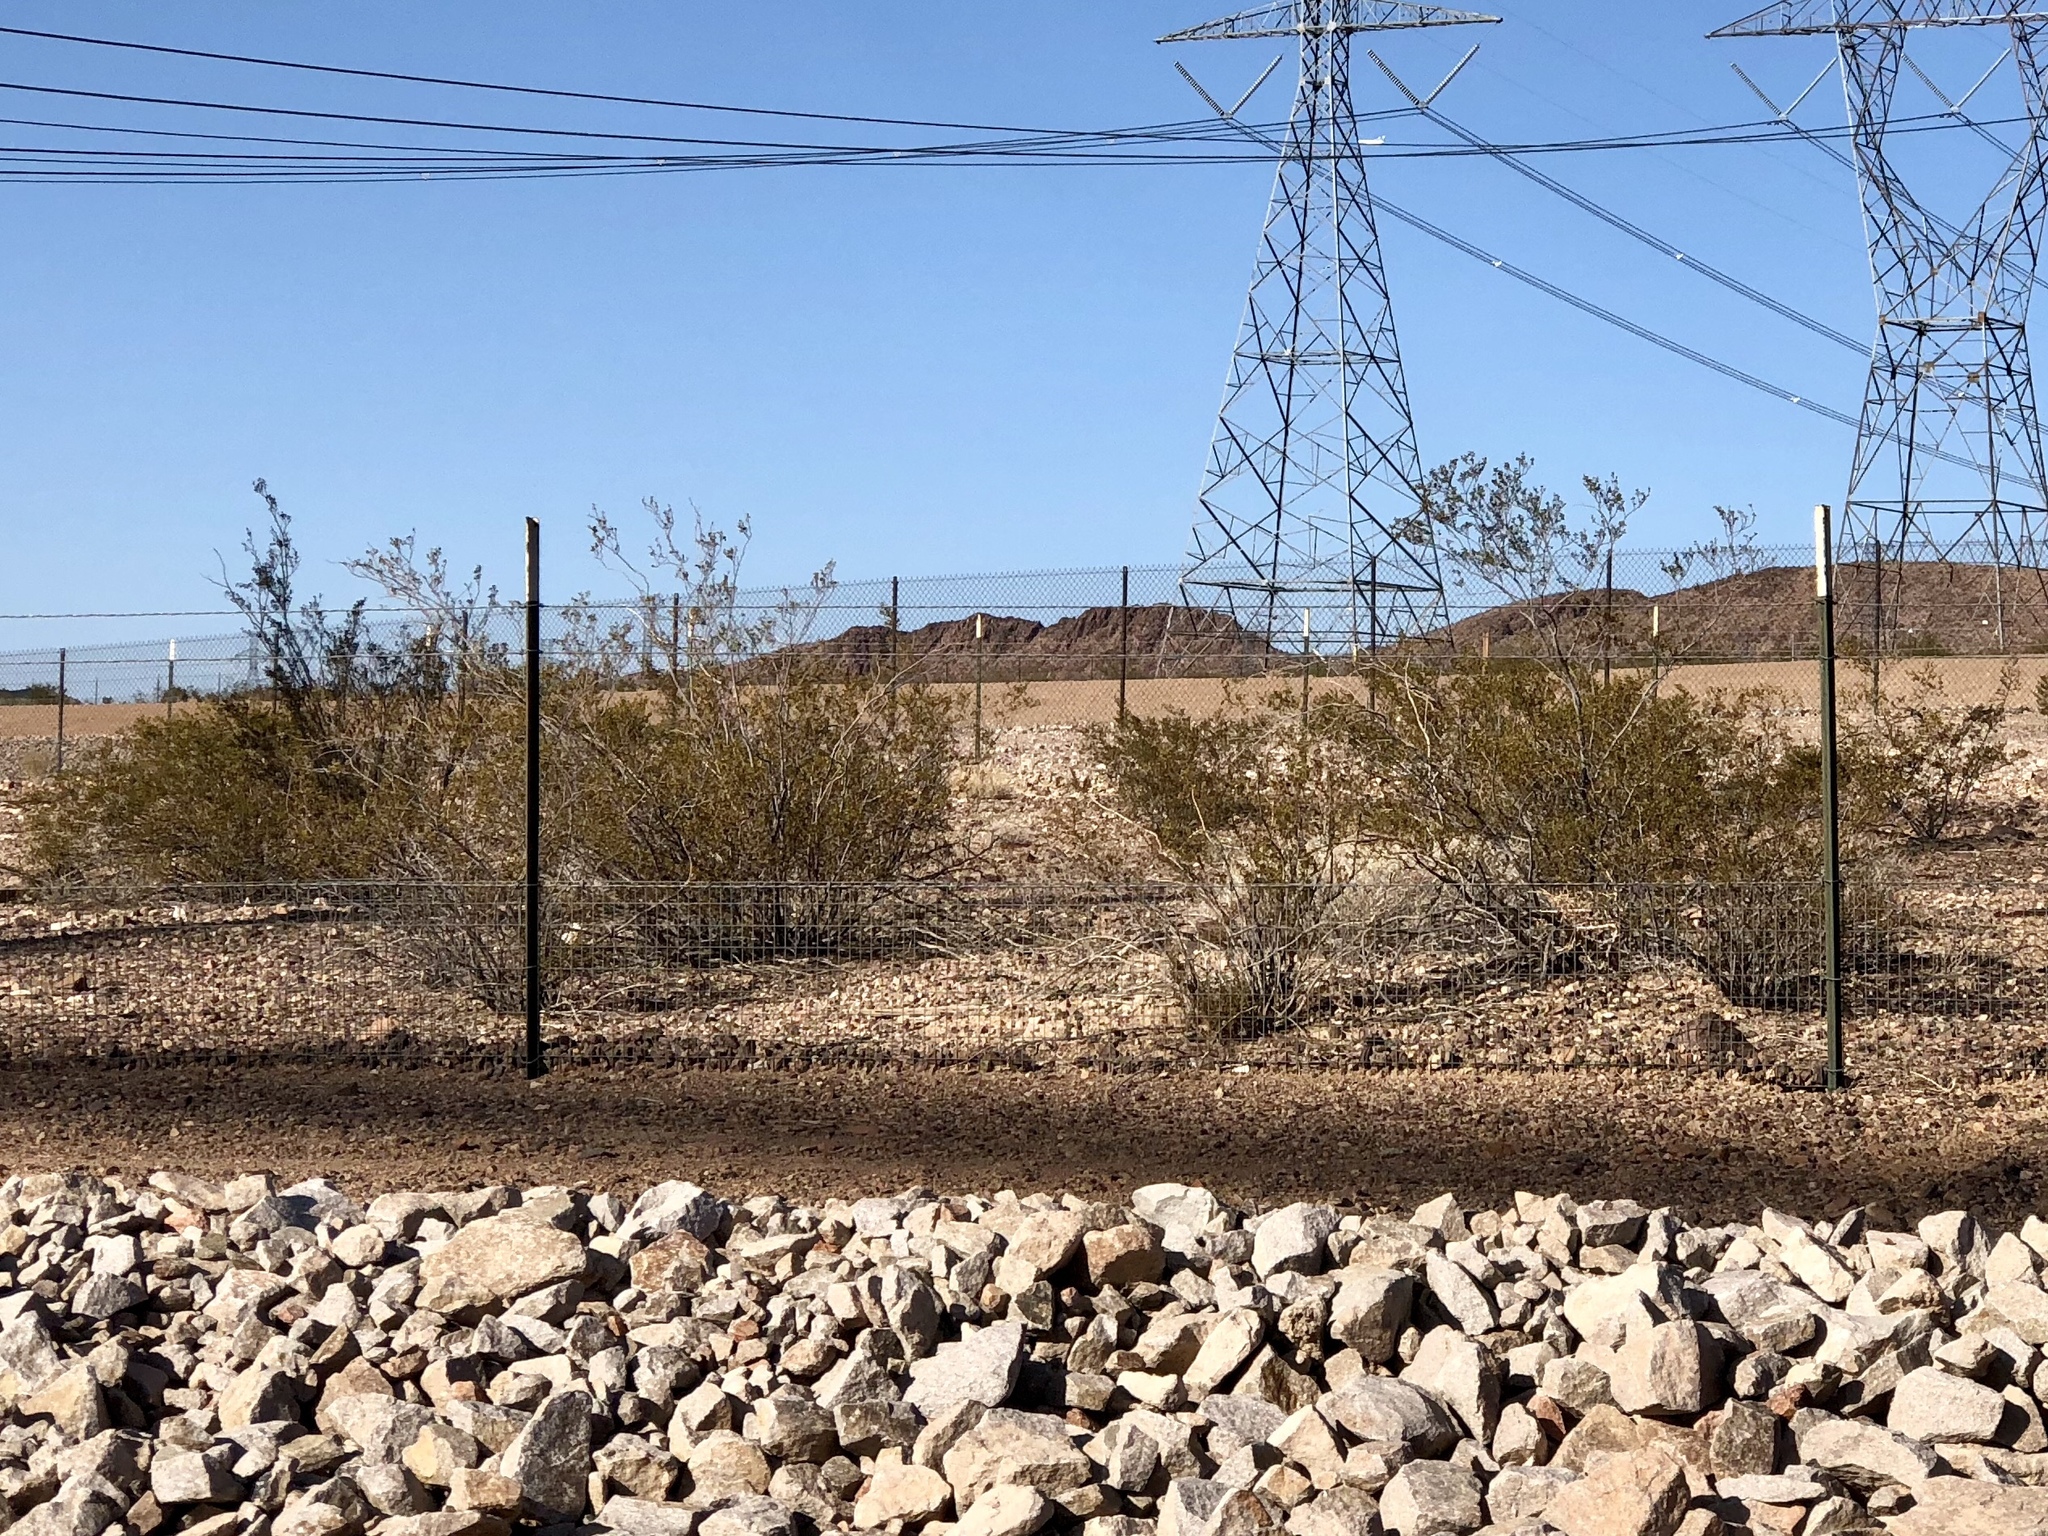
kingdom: Plantae
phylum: Tracheophyta
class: Magnoliopsida
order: Zygophyllales
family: Zygophyllaceae
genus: Larrea
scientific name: Larrea tridentata
